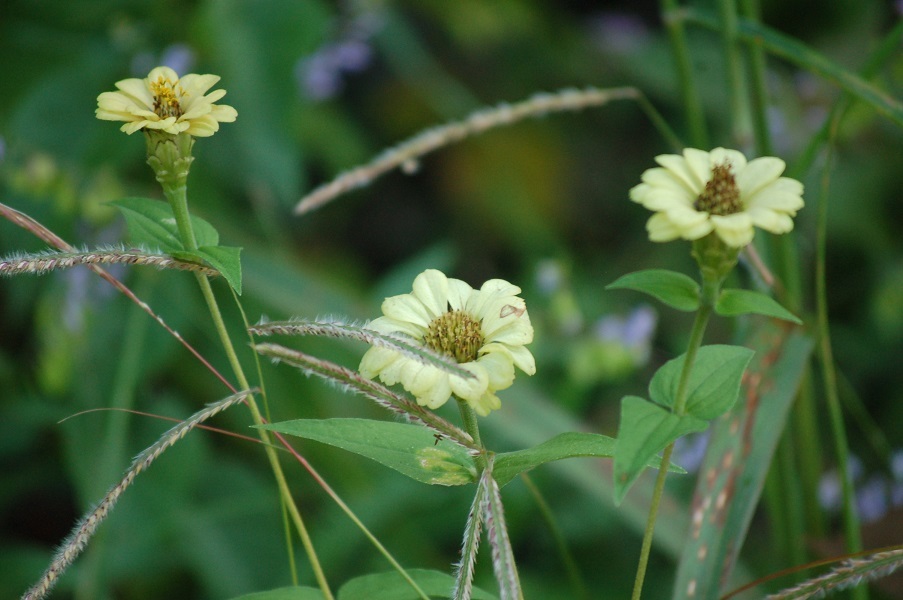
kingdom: Plantae
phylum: Tracheophyta
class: Magnoliopsida
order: Asterales
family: Asteraceae
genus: Zinnia
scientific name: Zinnia peruviana
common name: Peruvian zinnia
